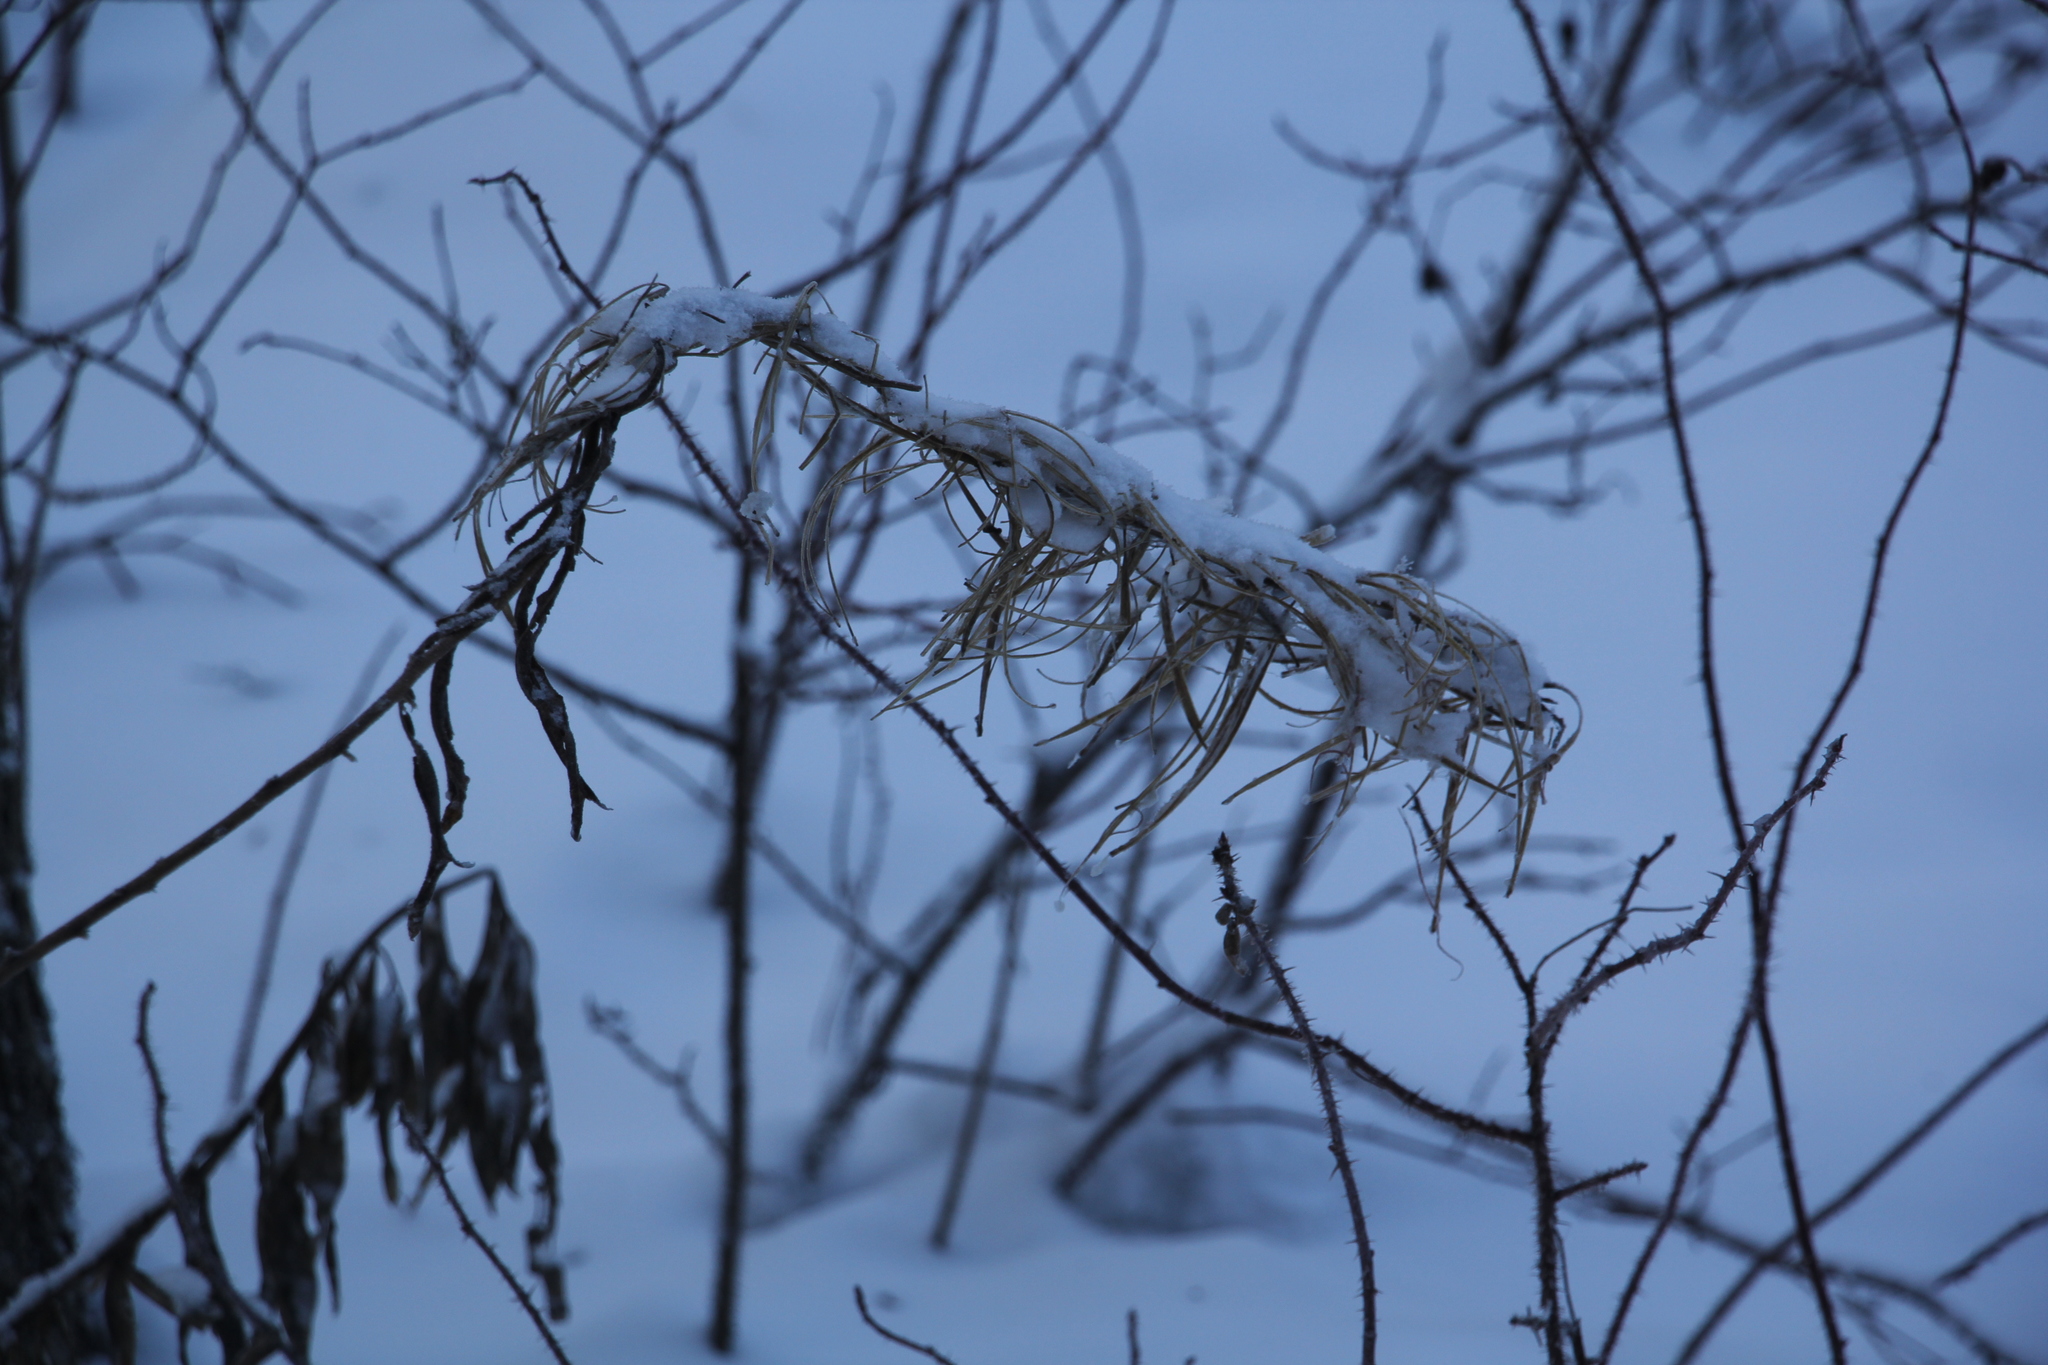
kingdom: Plantae
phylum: Tracheophyta
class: Magnoliopsida
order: Myrtales
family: Onagraceae
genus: Chamaenerion
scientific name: Chamaenerion angustifolium
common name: Fireweed
